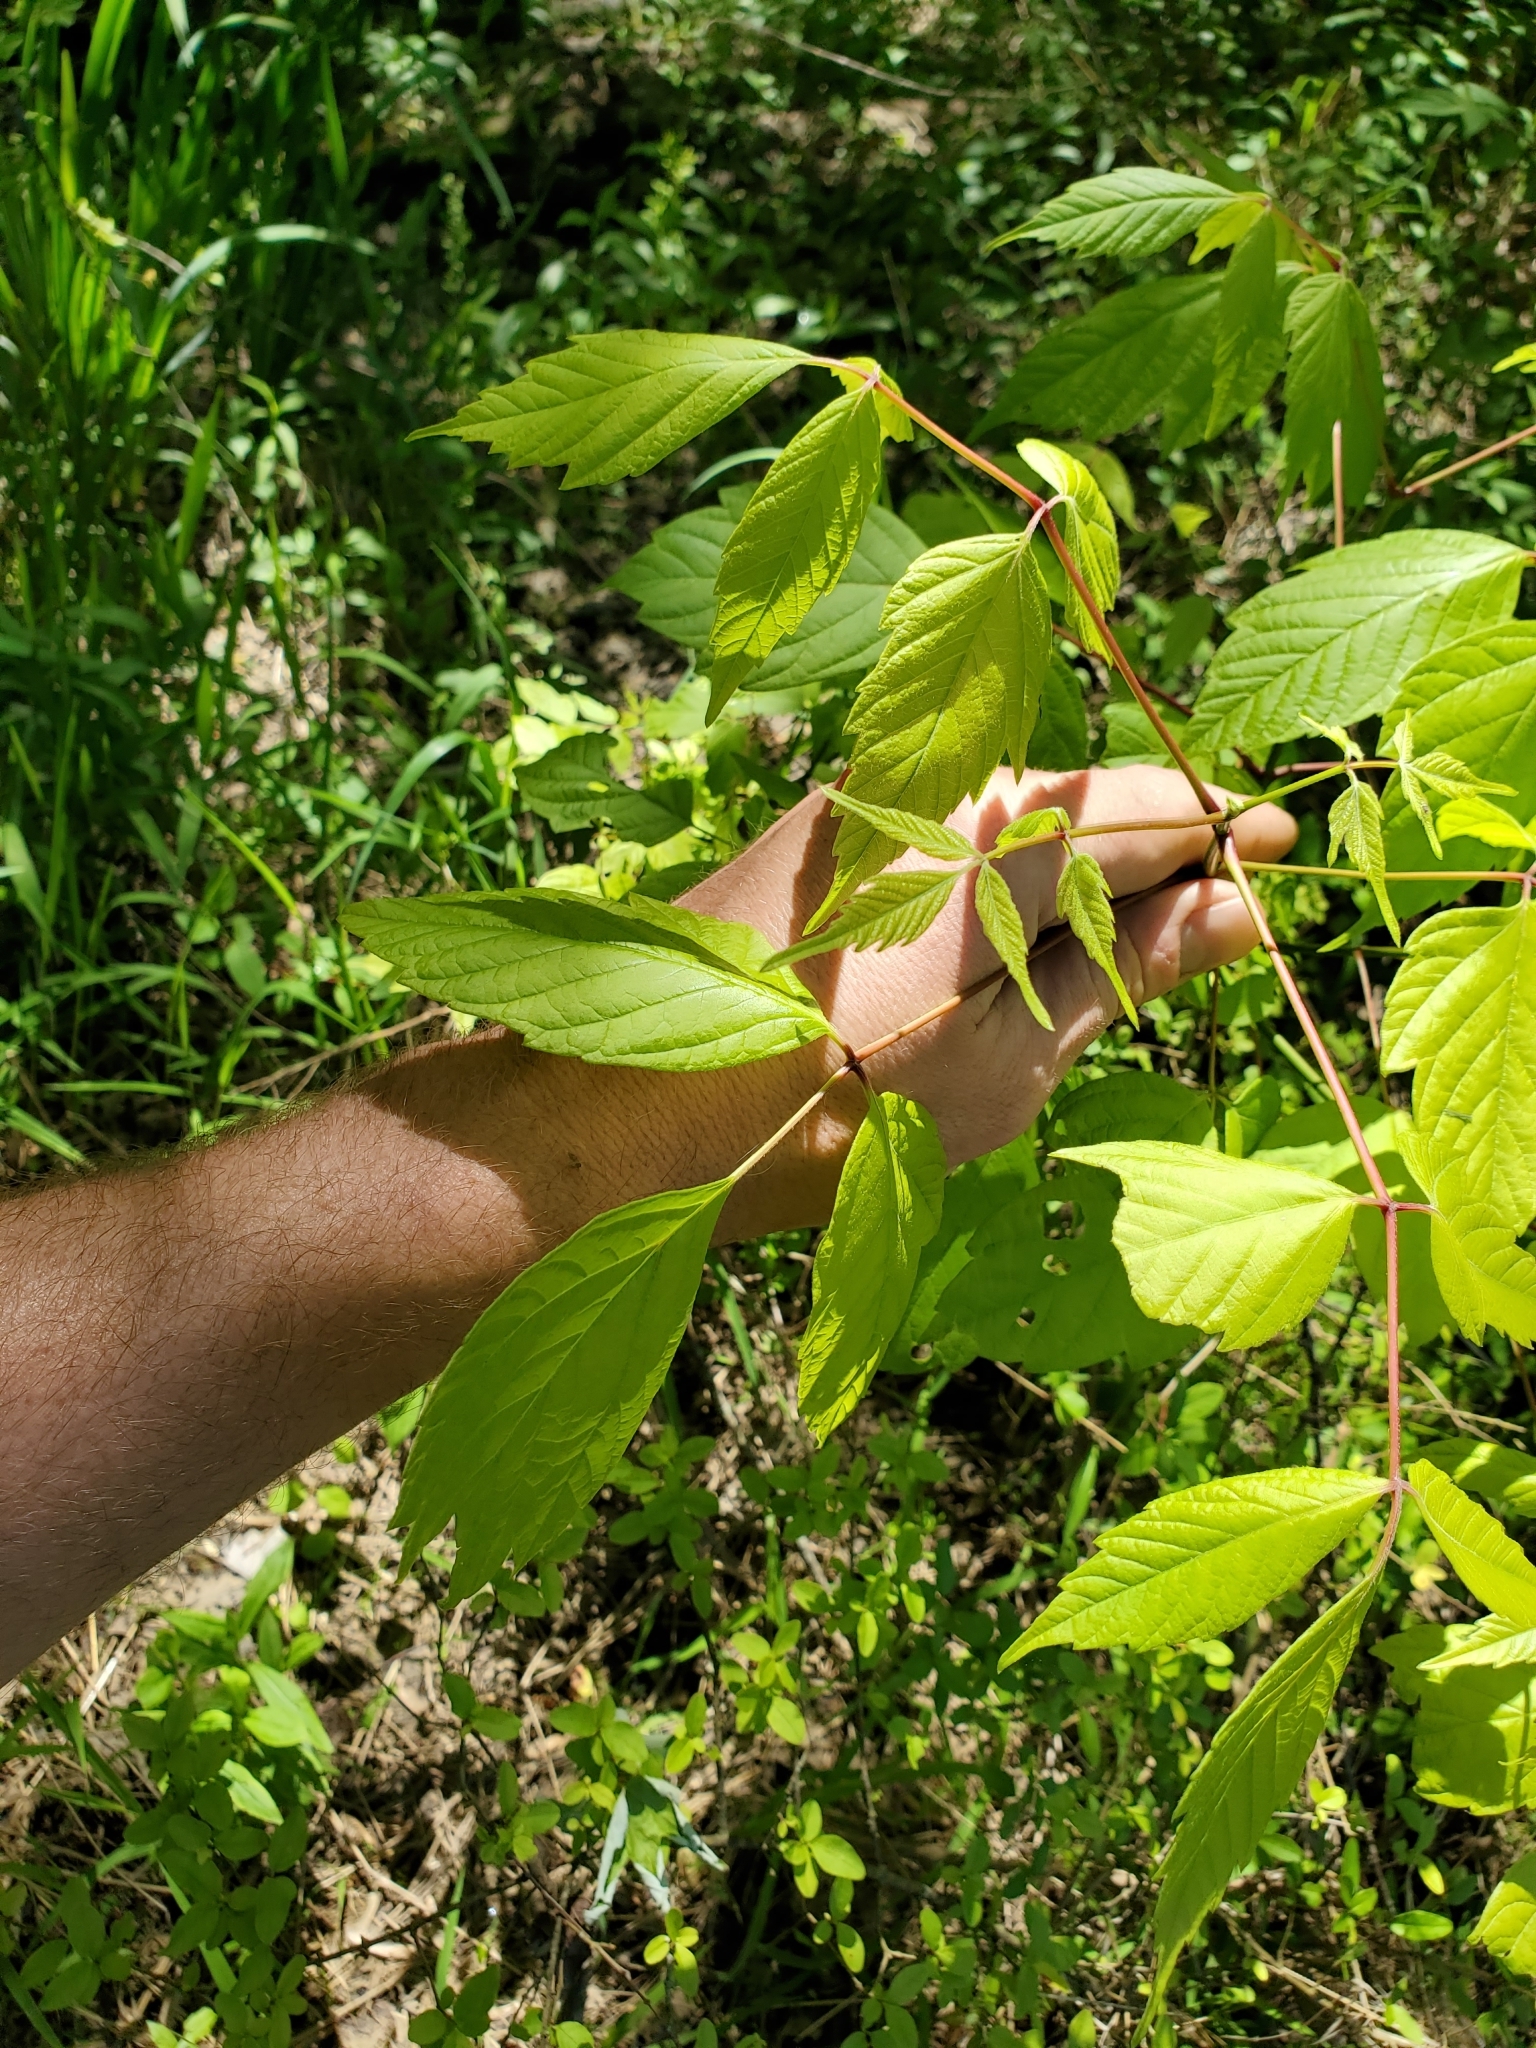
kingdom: Plantae
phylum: Tracheophyta
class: Magnoliopsida
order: Sapindales
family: Sapindaceae
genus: Acer
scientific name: Acer negundo
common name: Ashleaf maple
